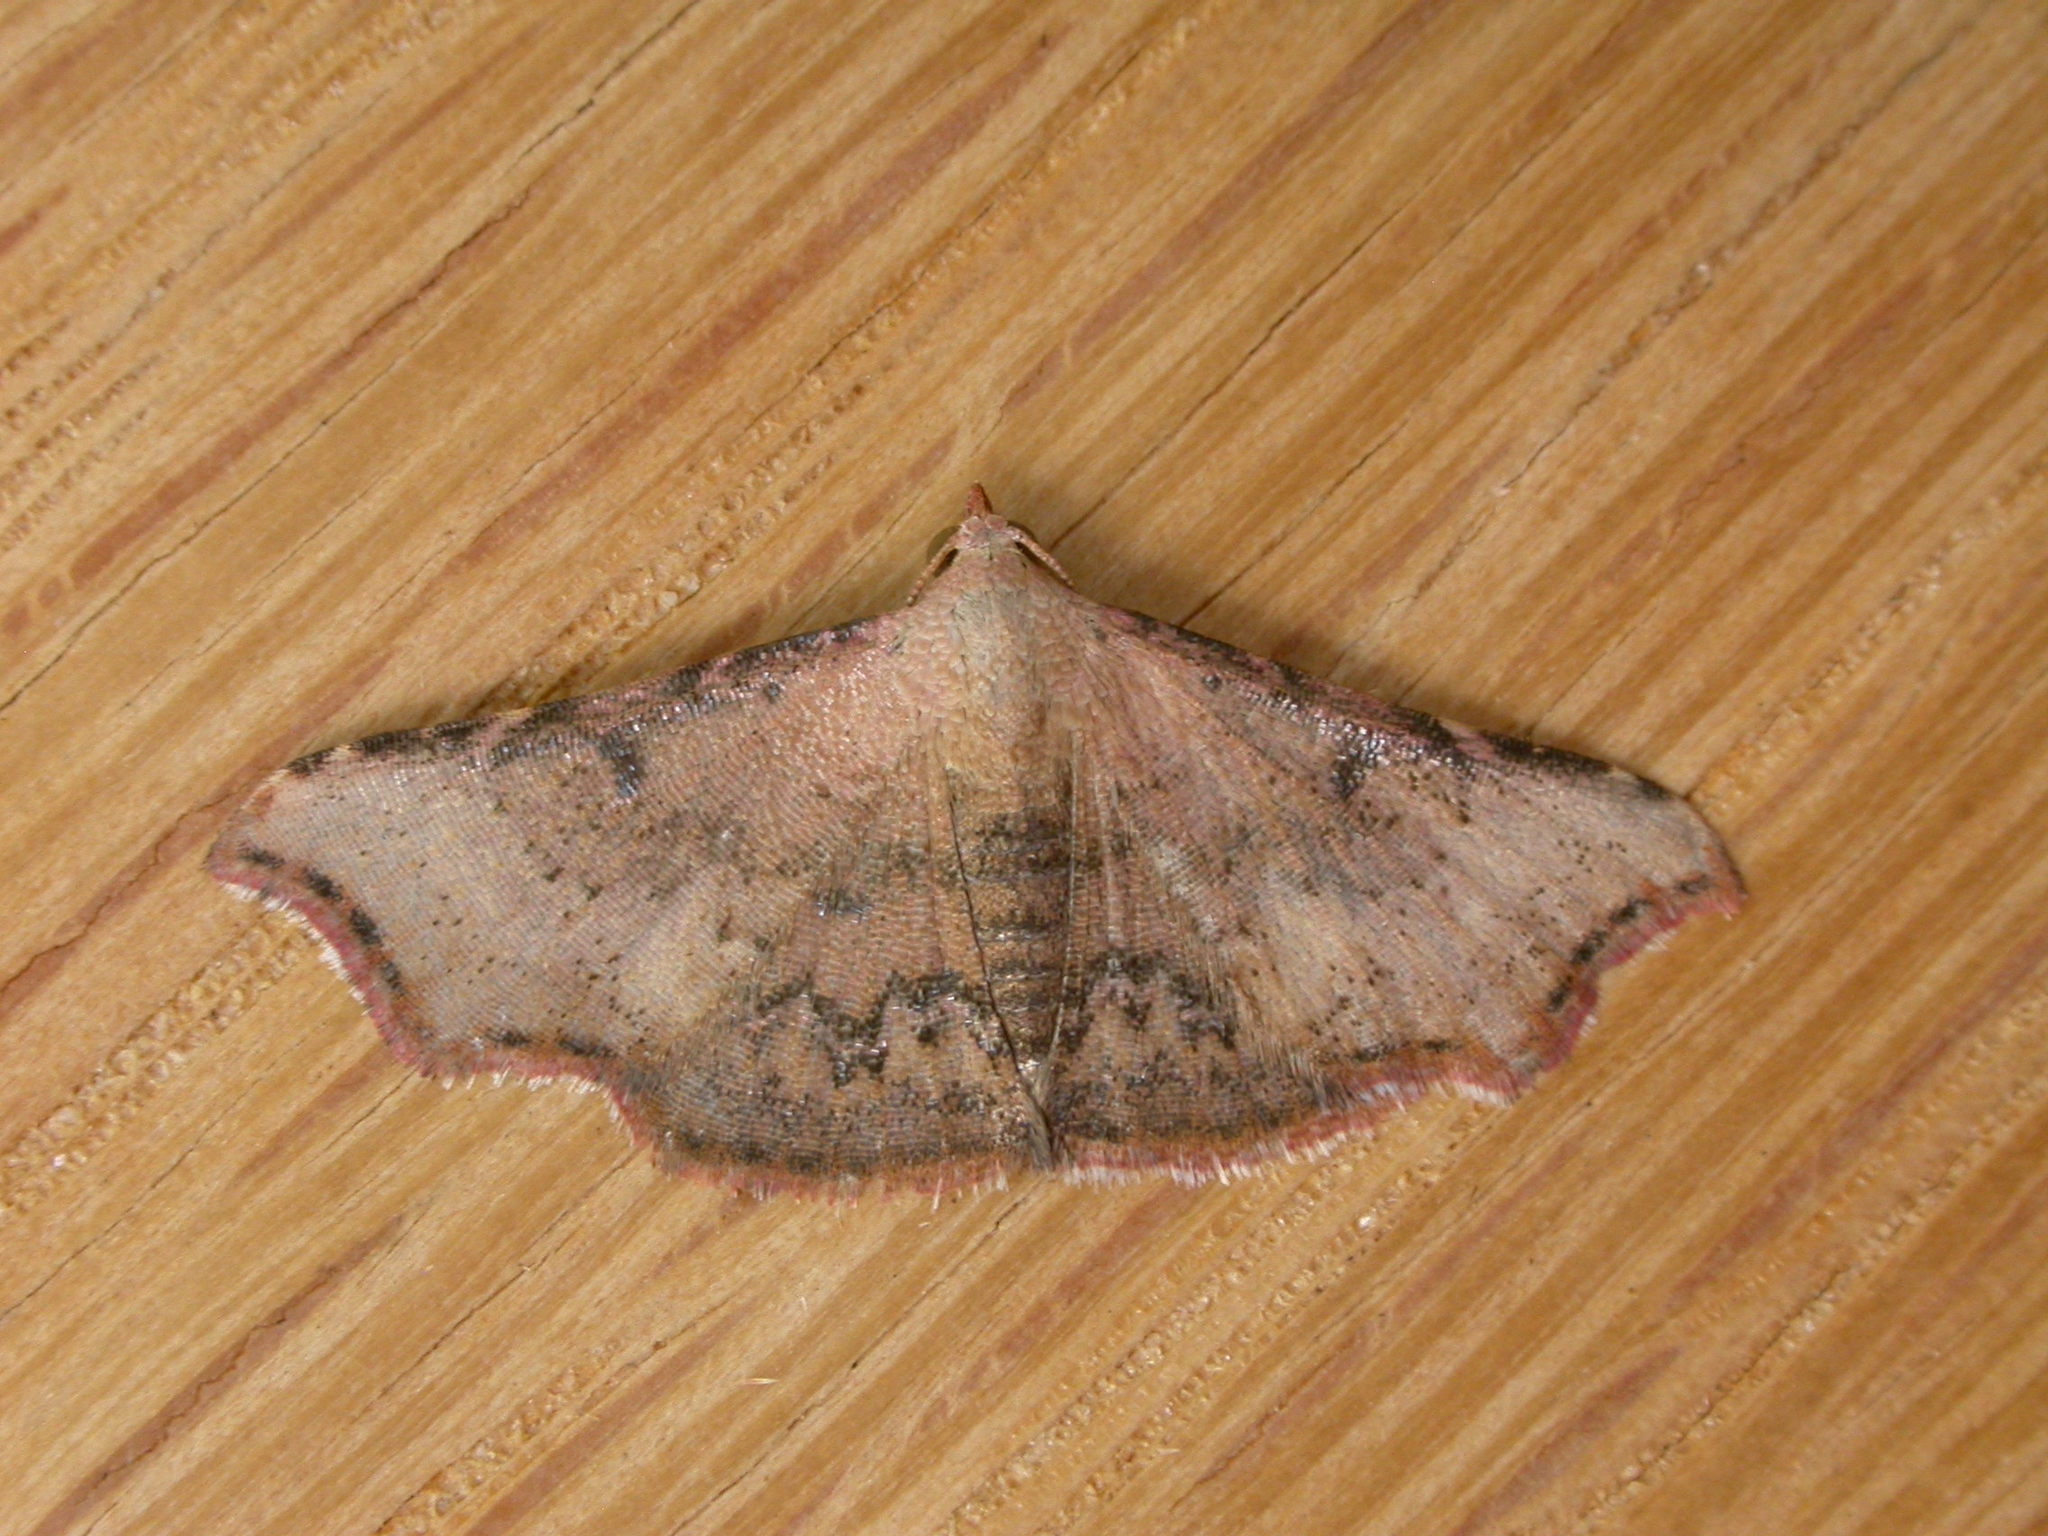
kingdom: Animalia
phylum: Arthropoda
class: Insecta
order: Lepidoptera
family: Erebidae
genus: Corgatha
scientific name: Corgatha dipyra
